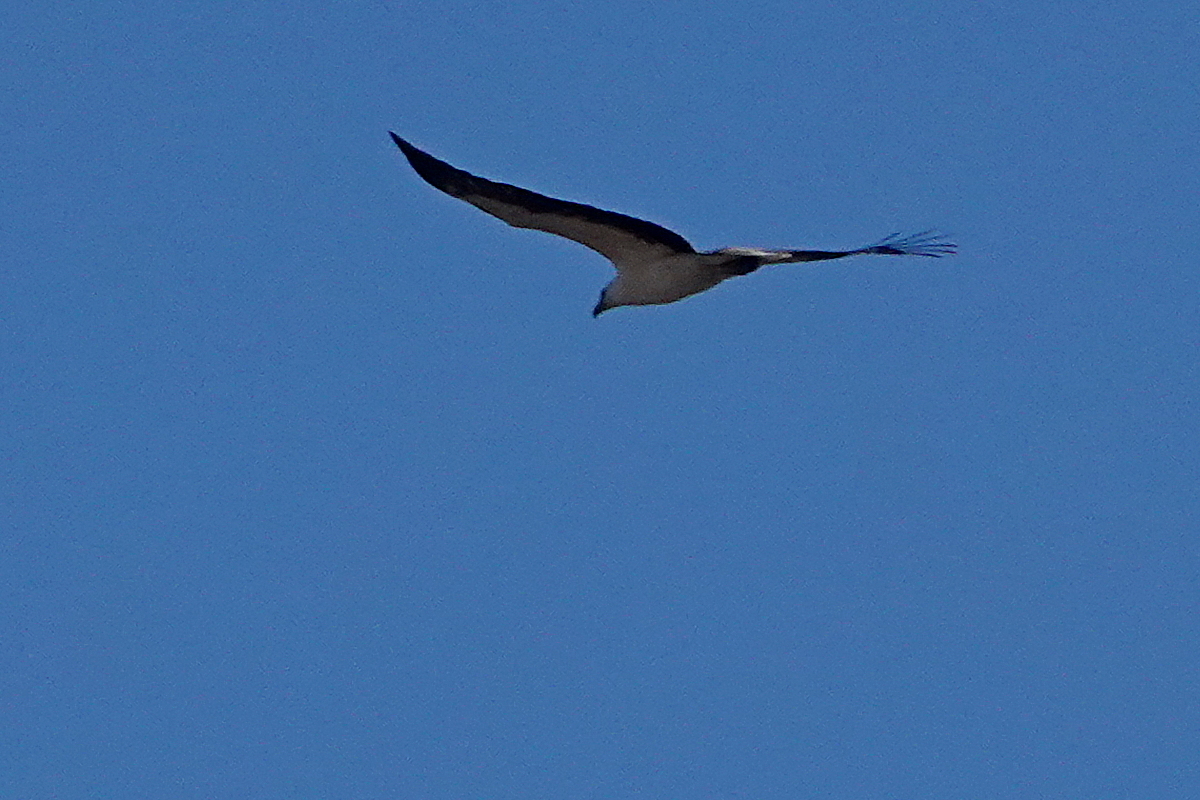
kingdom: Animalia
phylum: Chordata
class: Aves
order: Accipitriformes
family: Accipitridae
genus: Haliaeetus
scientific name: Haliaeetus leucogaster
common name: White-bellied sea eagle
